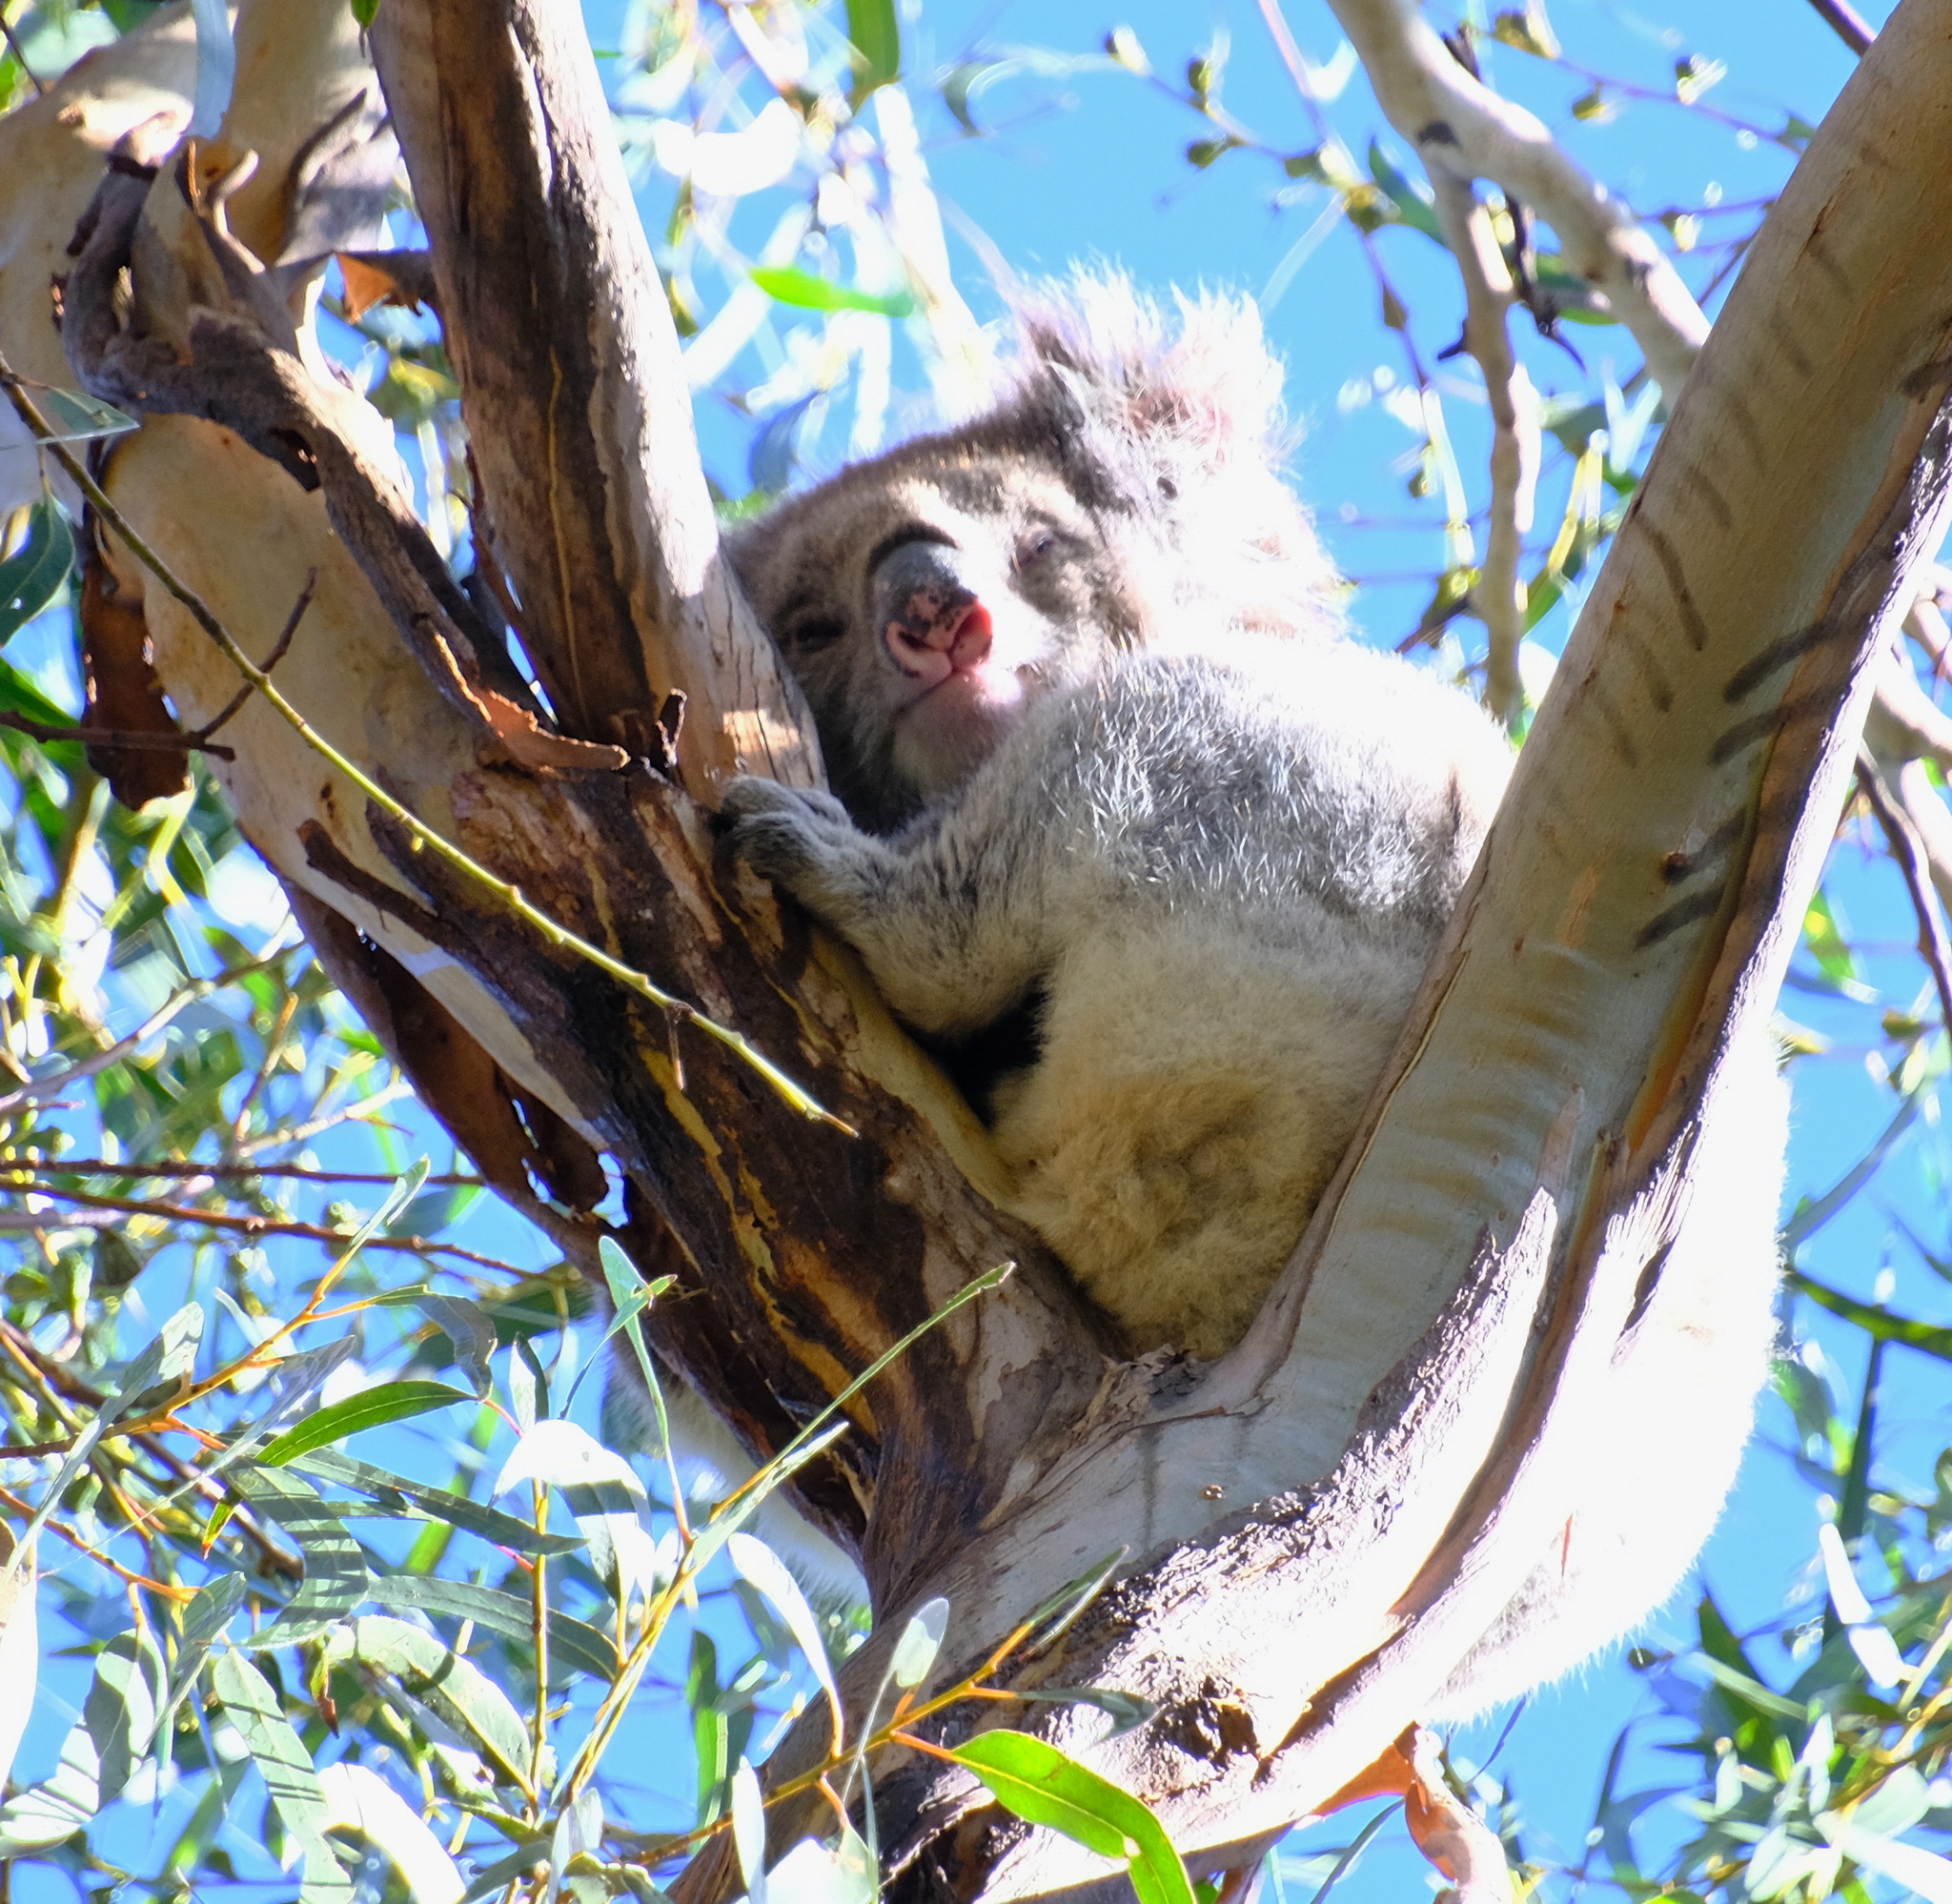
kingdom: Animalia
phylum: Chordata
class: Mammalia
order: Diprotodontia
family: Phascolarctidae
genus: Phascolarctos
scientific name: Phascolarctos cinereus
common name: Koala
